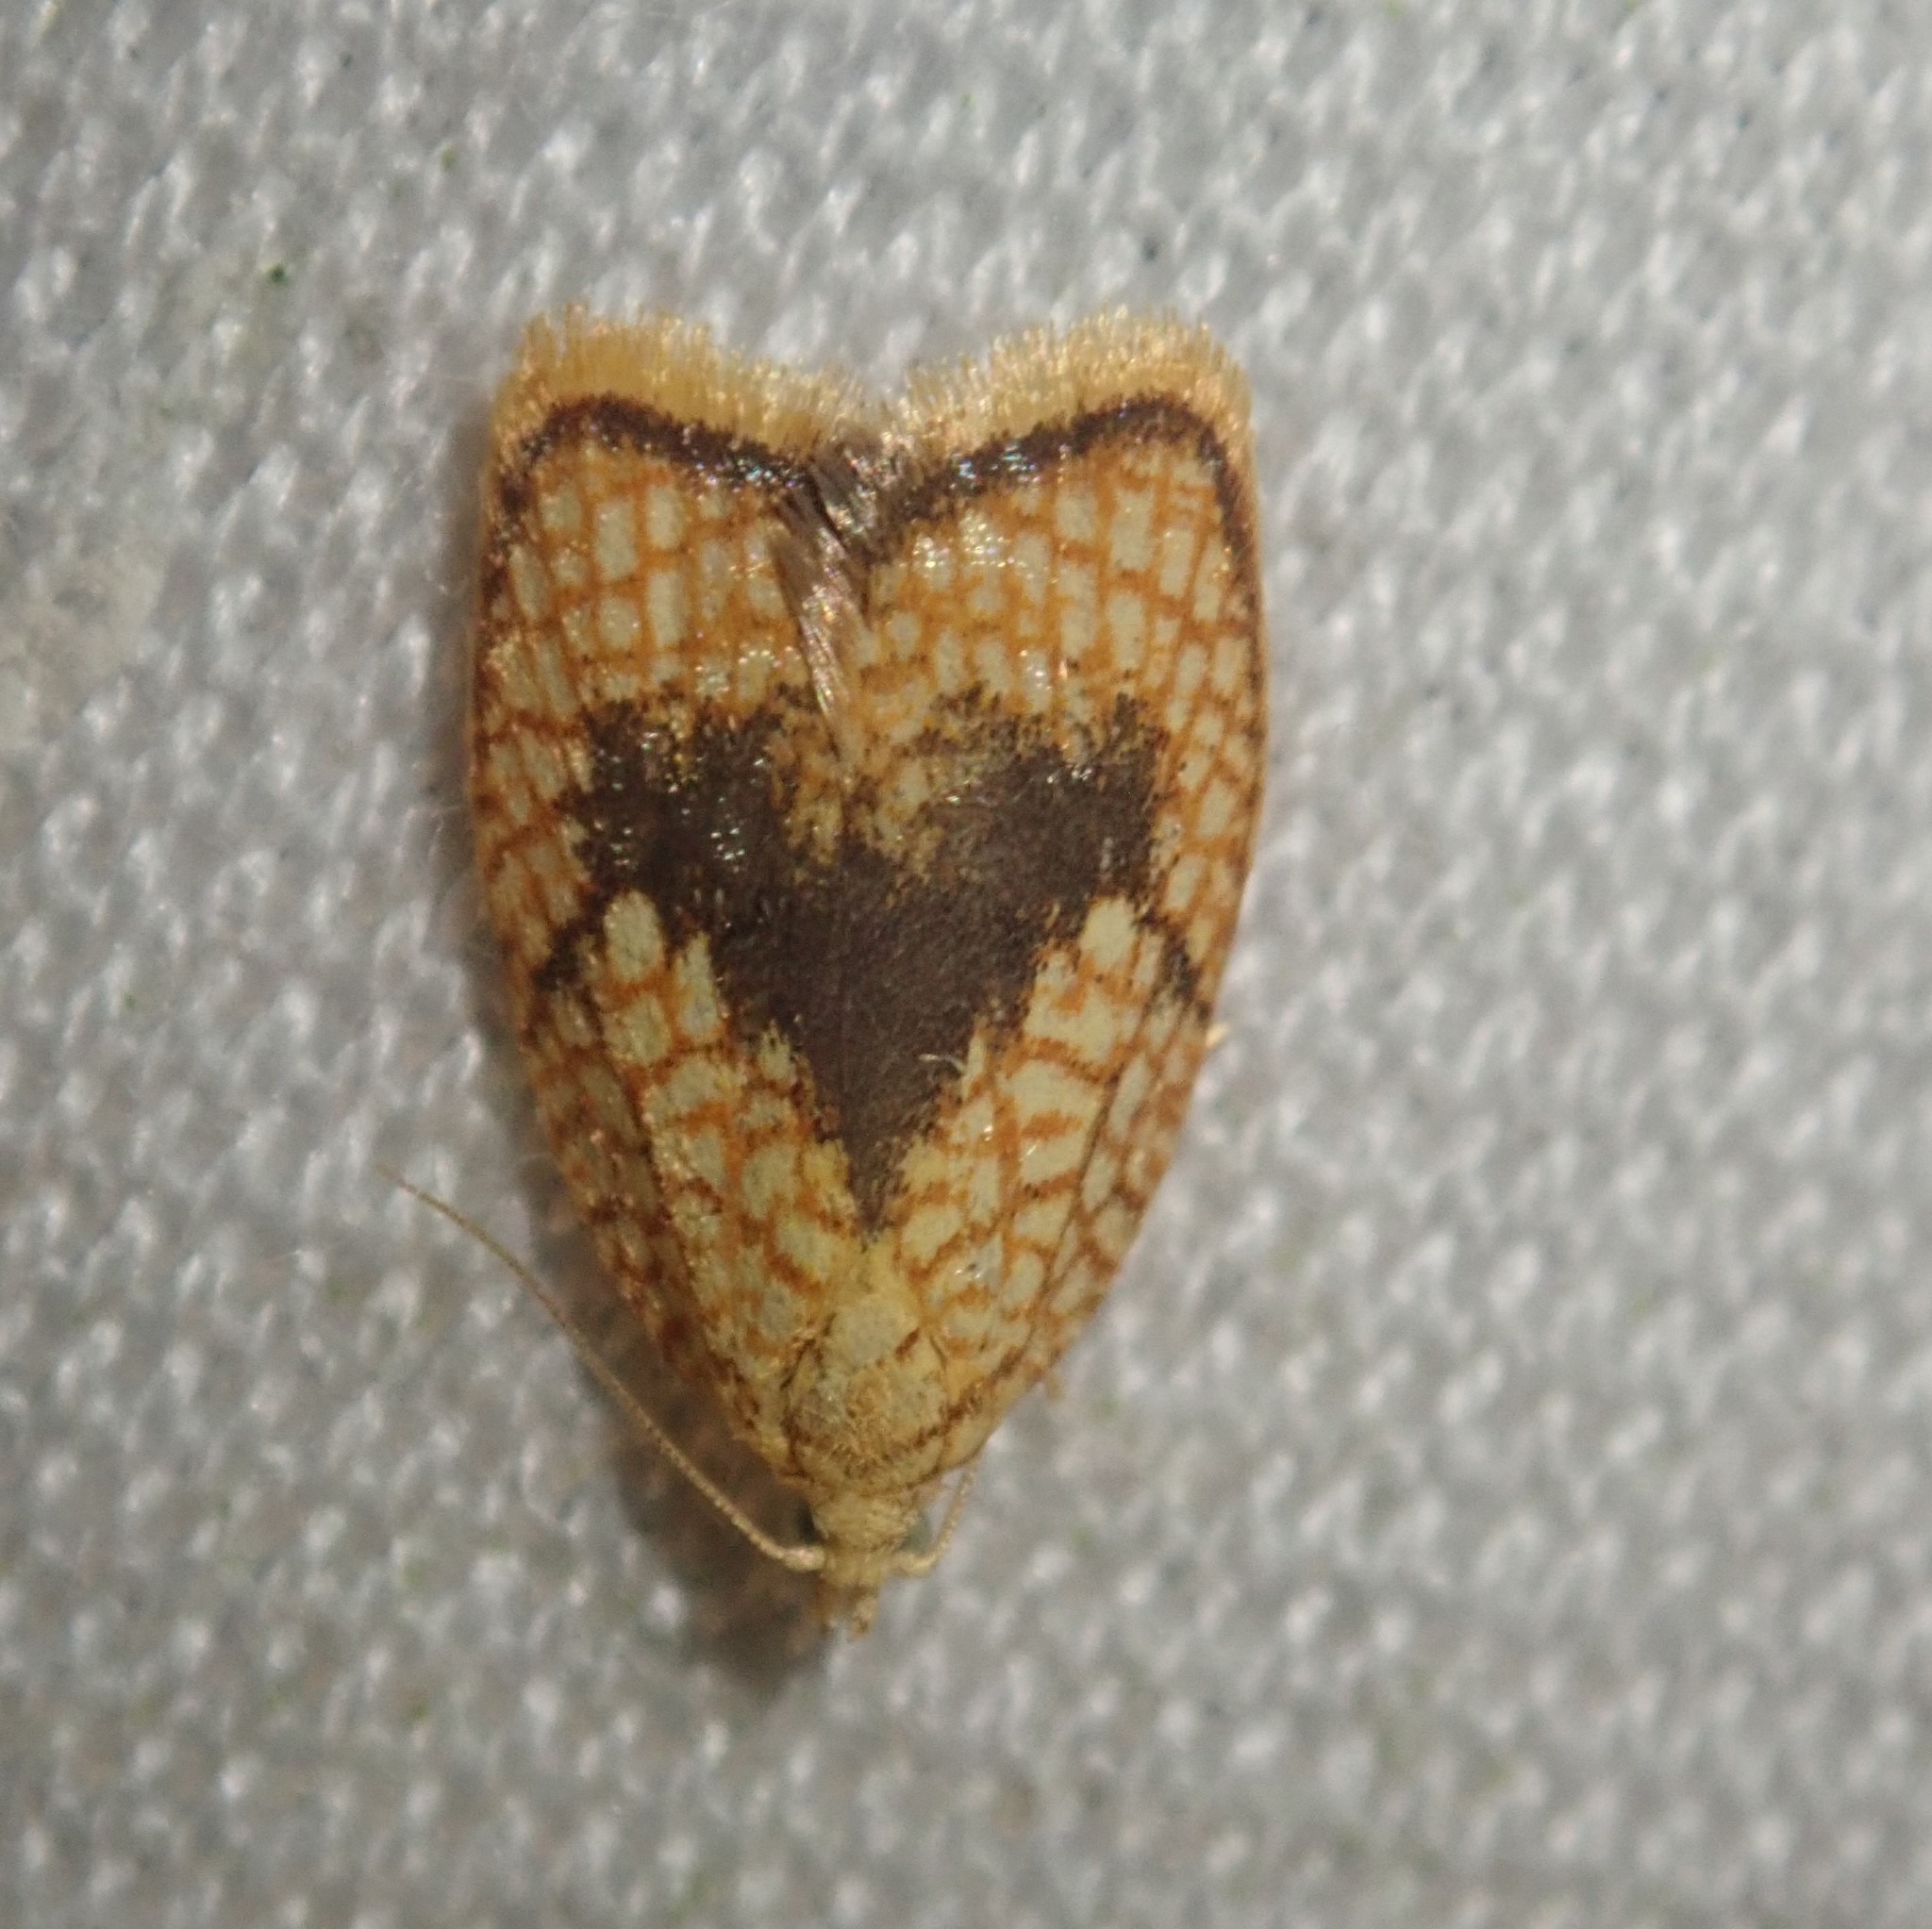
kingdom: Animalia
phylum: Arthropoda
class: Insecta
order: Lepidoptera
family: Tortricidae
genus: Acleris
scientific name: Acleris forsskaleana
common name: Maple button
